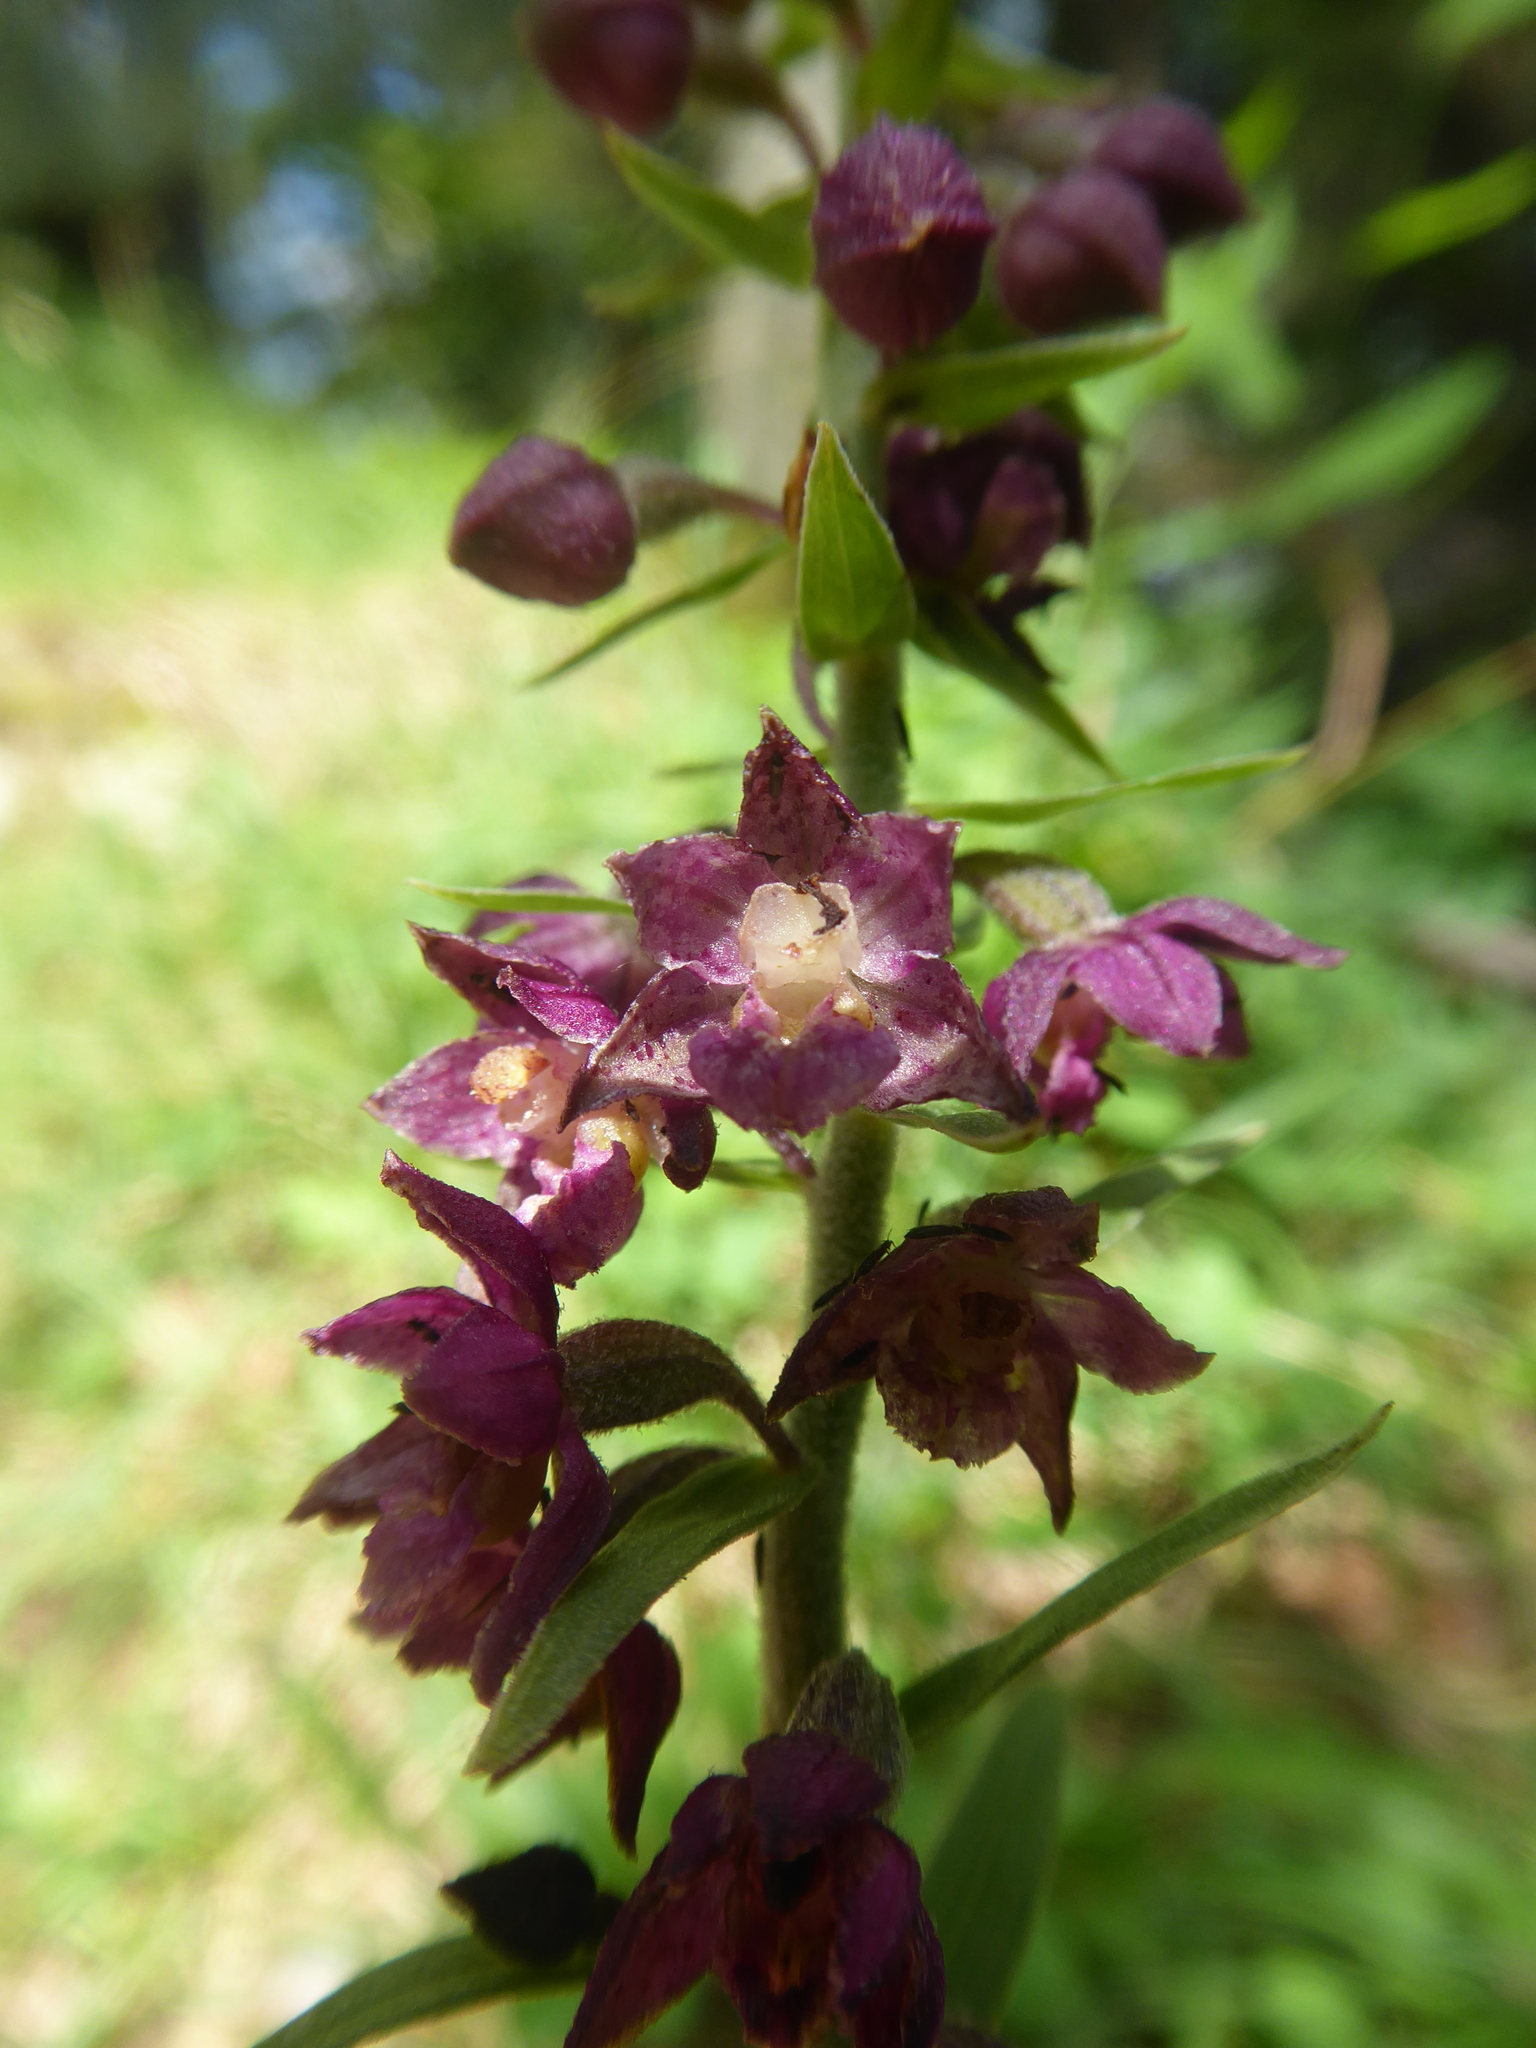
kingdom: Plantae
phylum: Tracheophyta
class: Liliopsida
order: Asparagales
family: Orchidaceae
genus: Epipactis
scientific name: Epipactis atrorubens
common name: Dark-red helleborine
